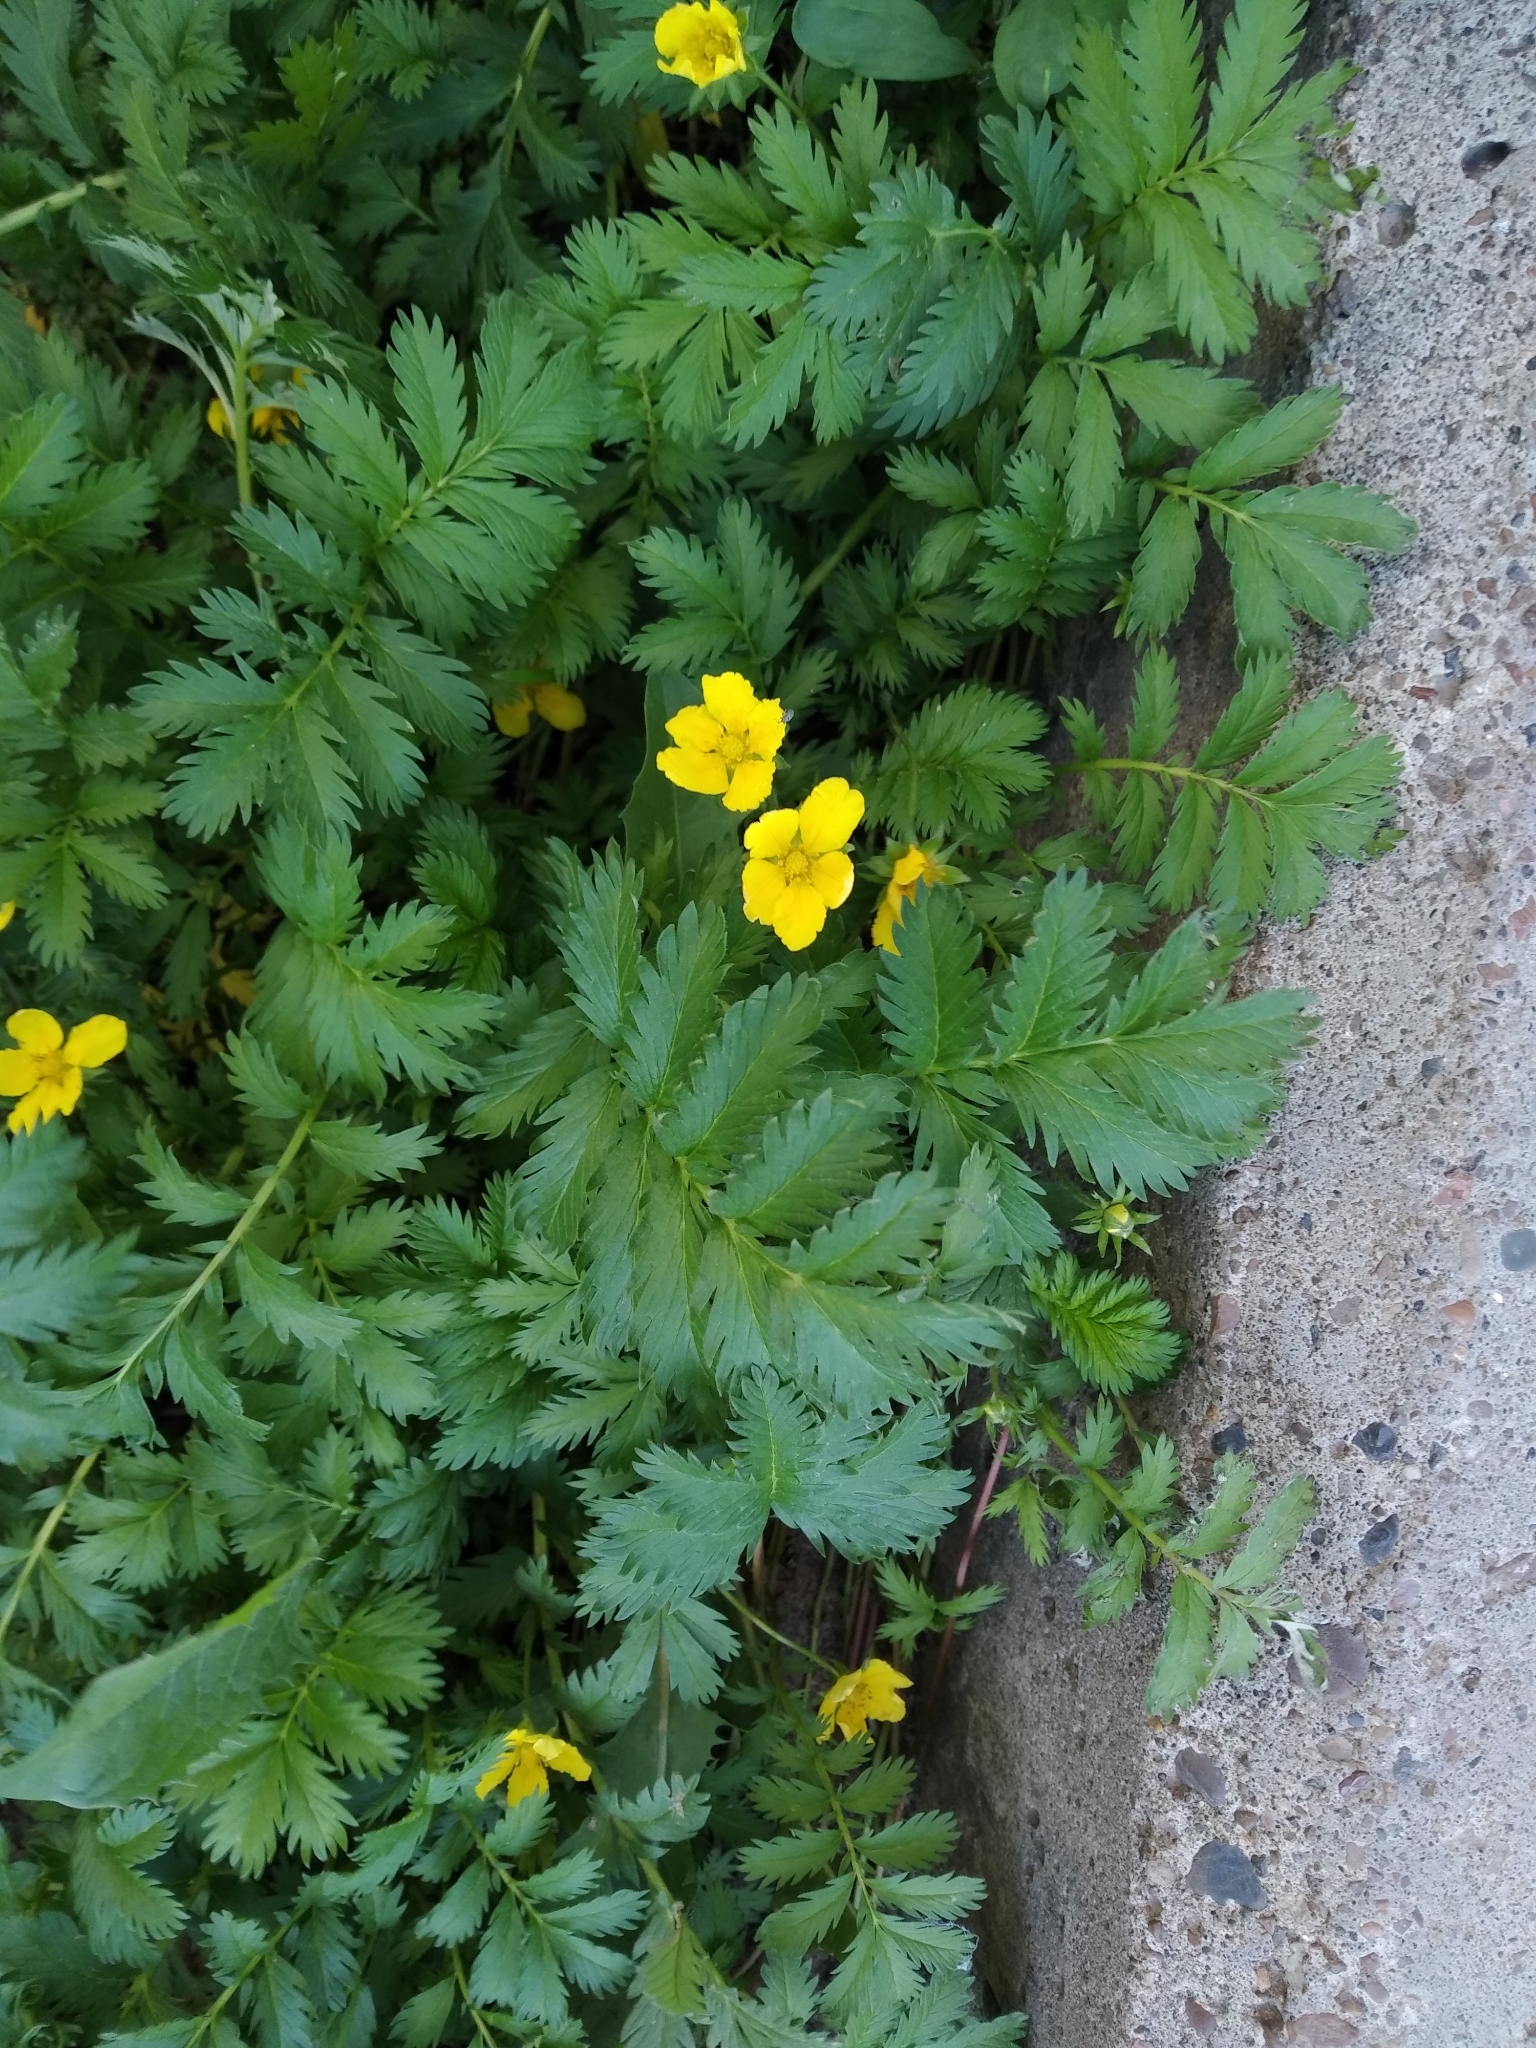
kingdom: Plantae
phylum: Tracheophyta
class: Magnoliopsida
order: Rosales
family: Rosaceae
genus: Argentina
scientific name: Argentina anserina
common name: Common silverweed
